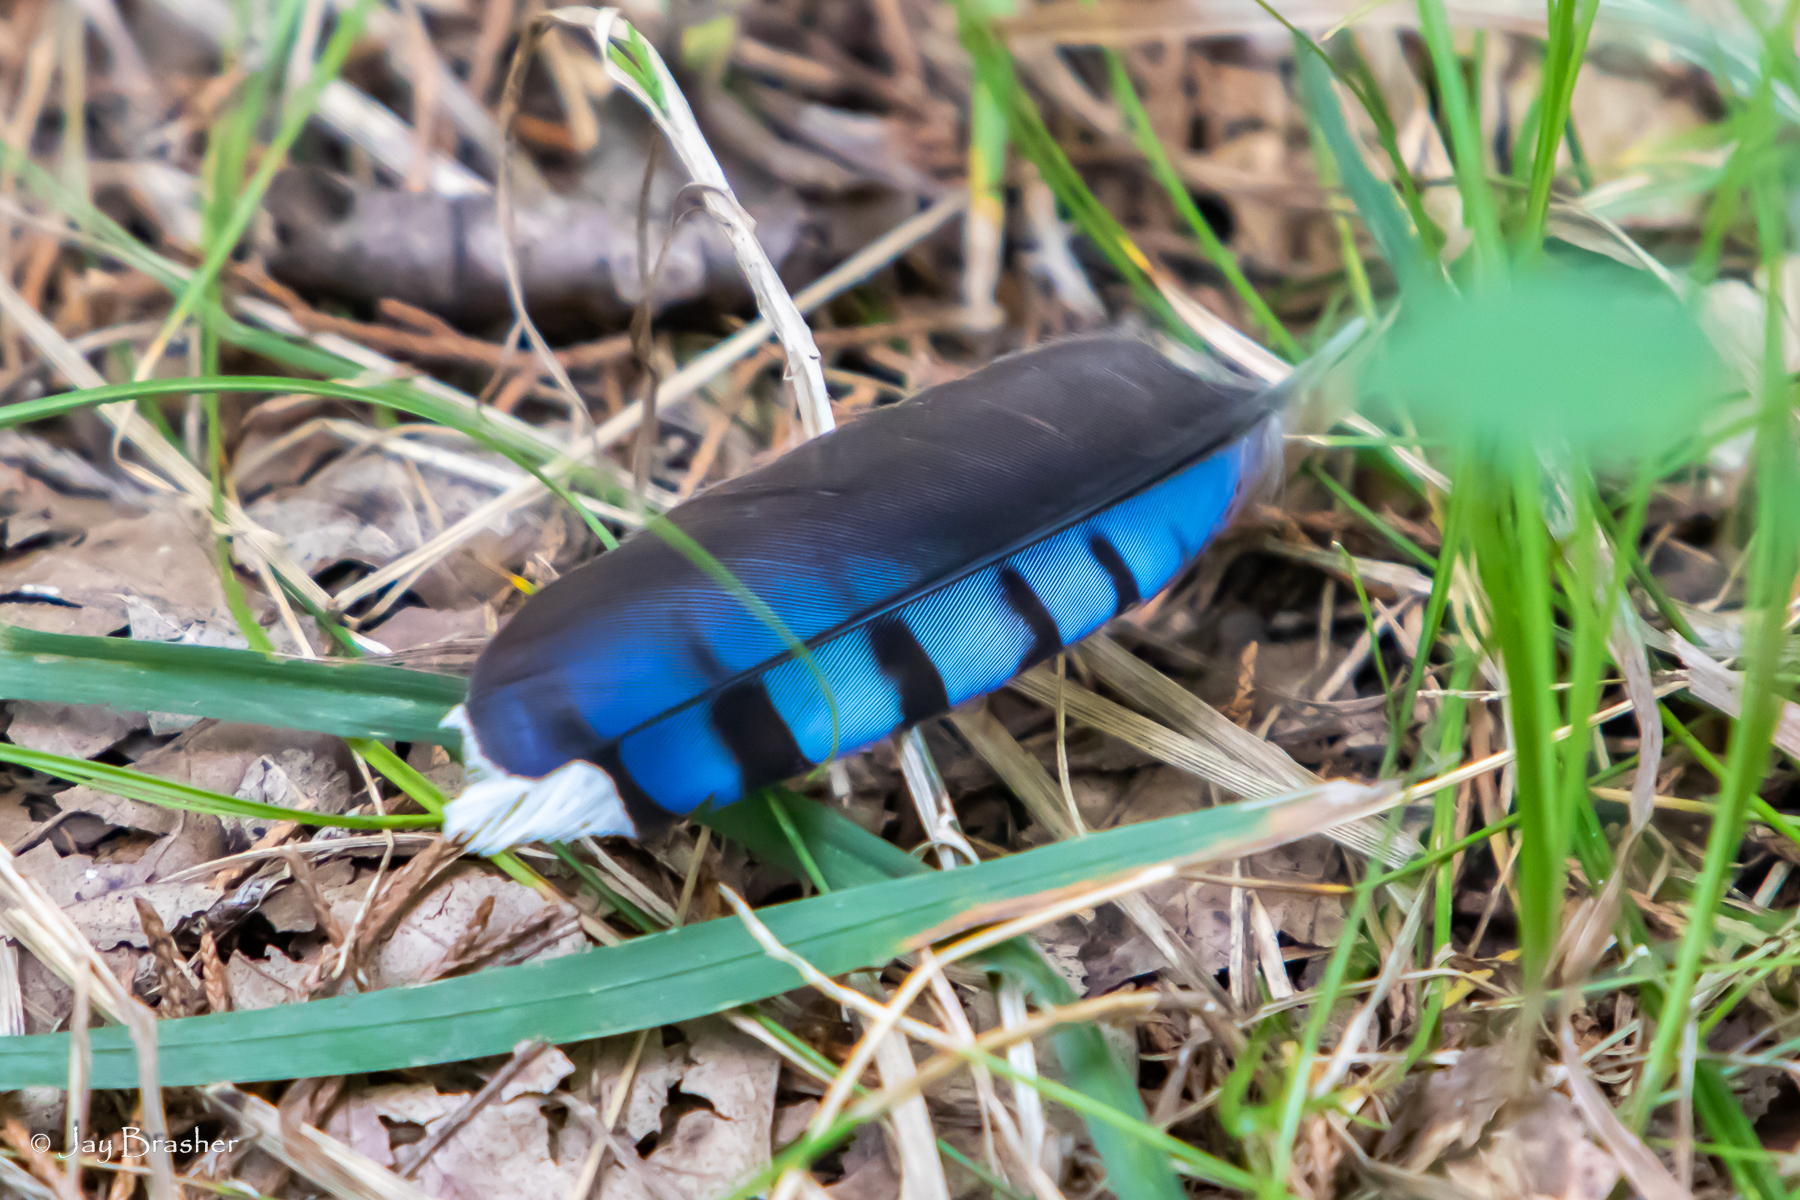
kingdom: Animalia
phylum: Chordata
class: Aves
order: Passeriformes
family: Corvidae
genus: Cyanocitta
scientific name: Cyanocitta cristata
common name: Blue jay
